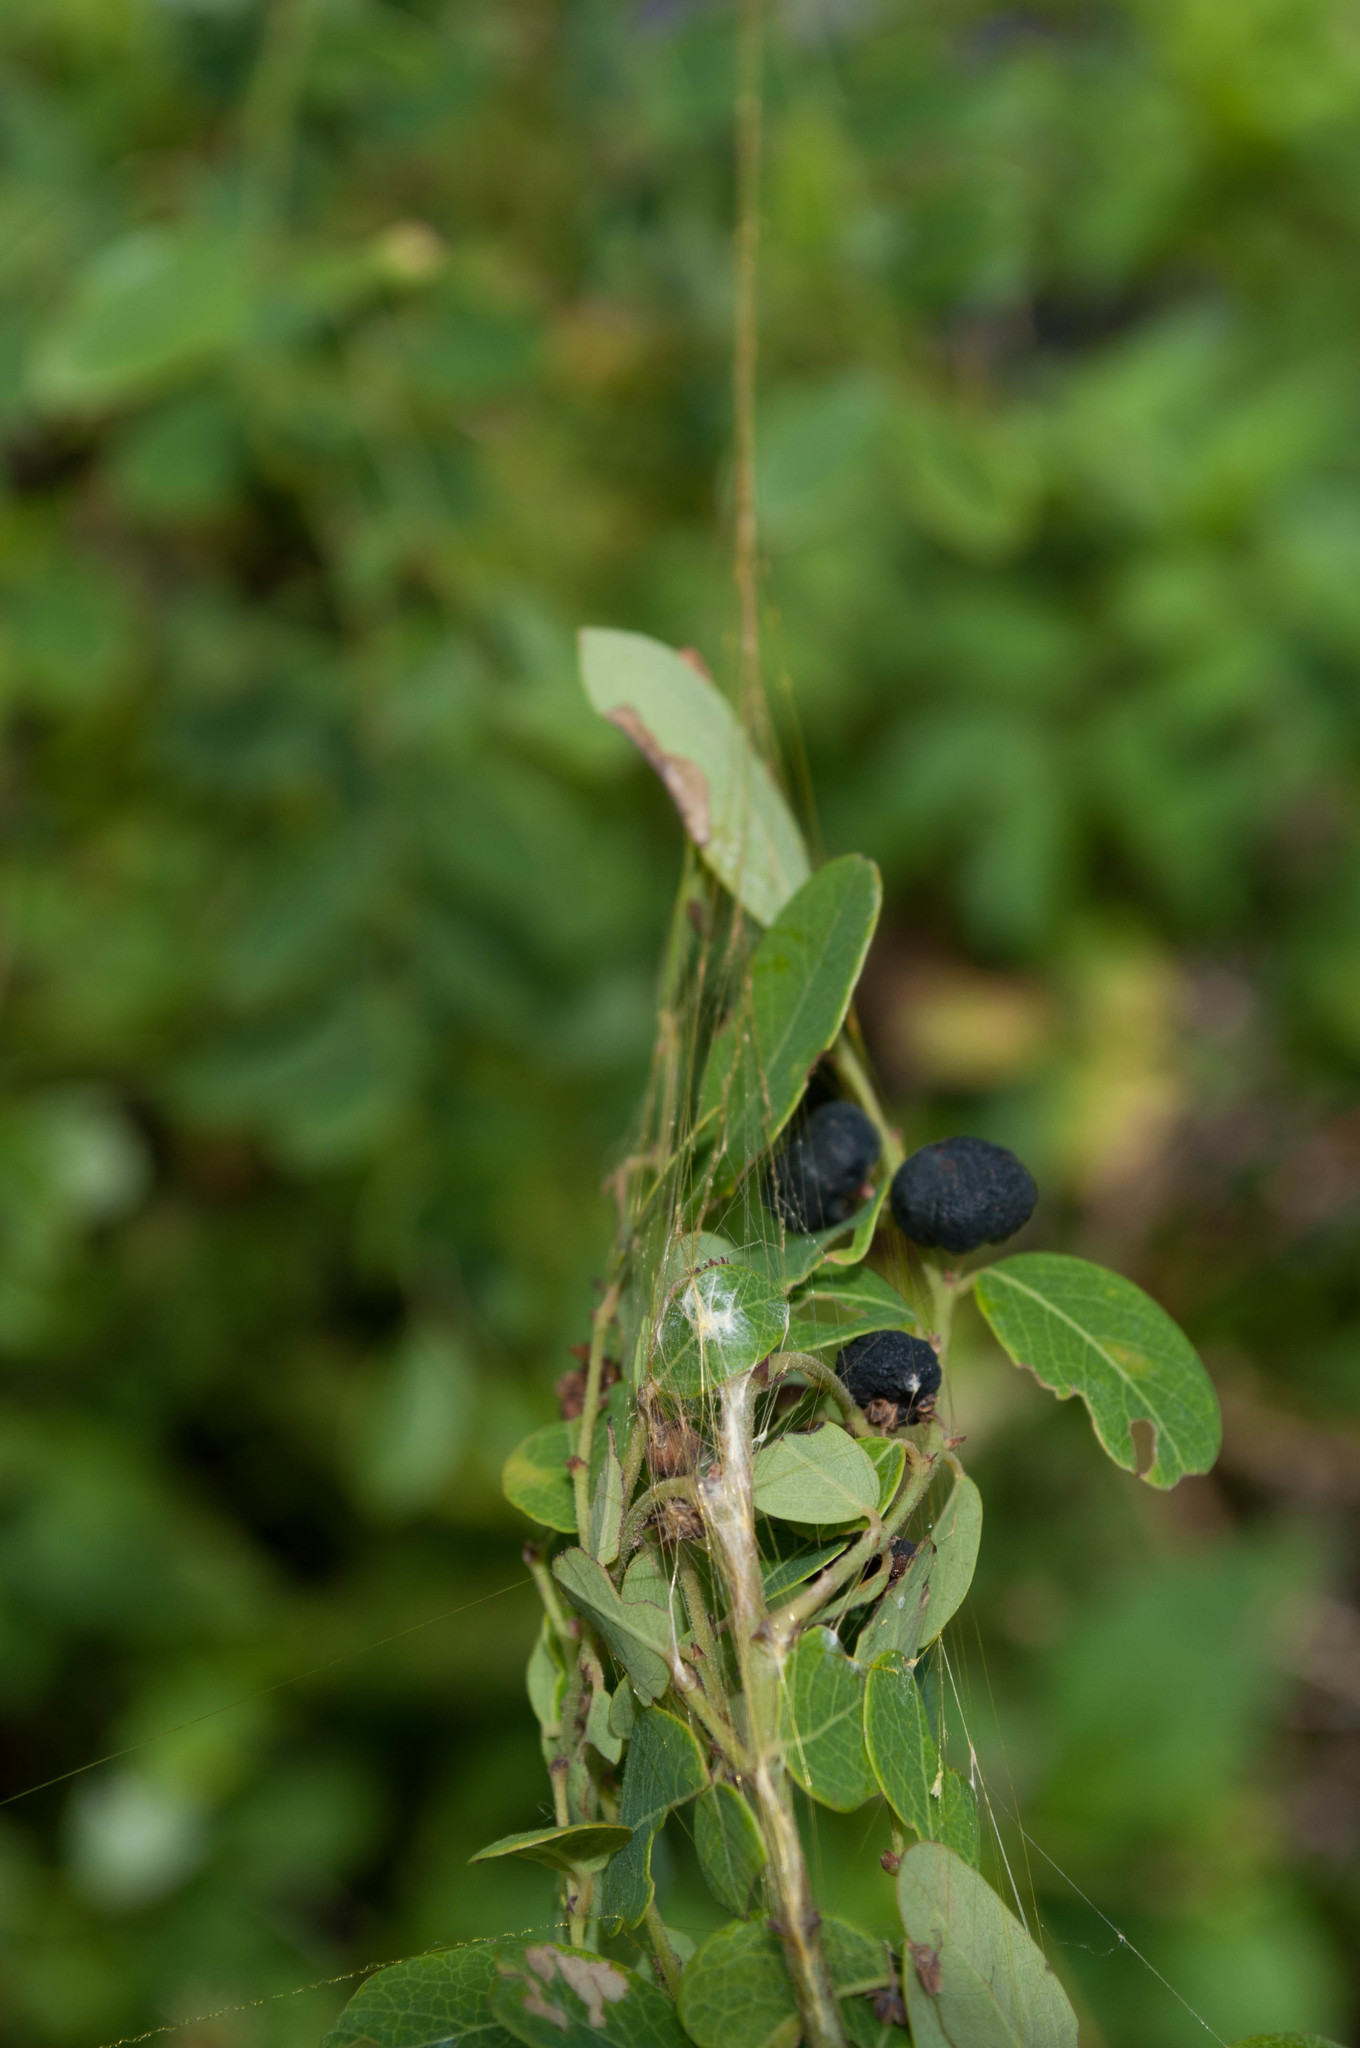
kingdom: Animalia
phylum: Arthropoda
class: Arachnida
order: Araneae
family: Araneidae
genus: Trichonephila
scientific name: Trichonephila antipodiana
